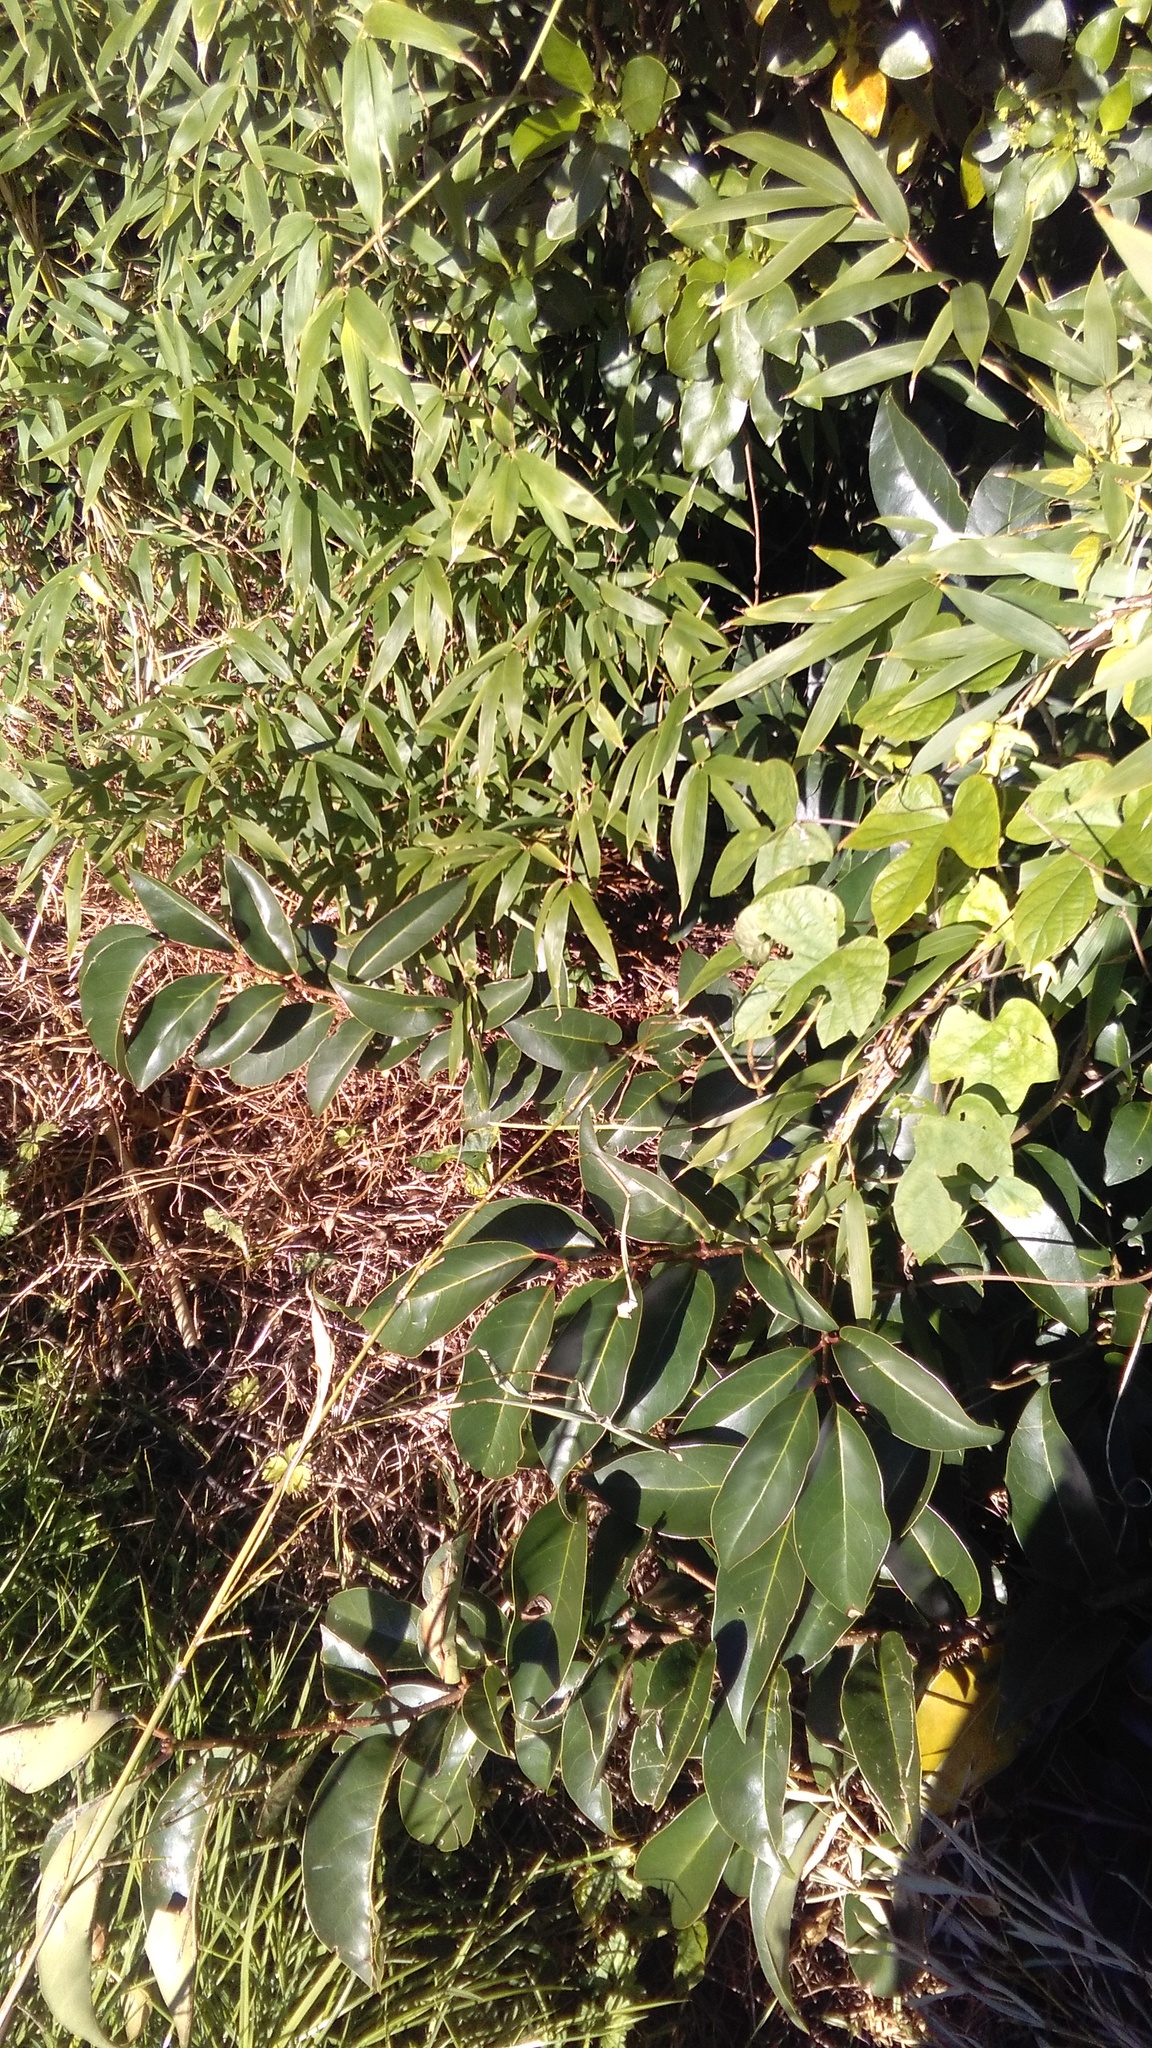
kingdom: Plantae
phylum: Tracheophyta
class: Magnoliopsida
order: Solanales
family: Convolvulaceae
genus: Ipomoea
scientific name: Ipomoea indica
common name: Blue dawnflower
